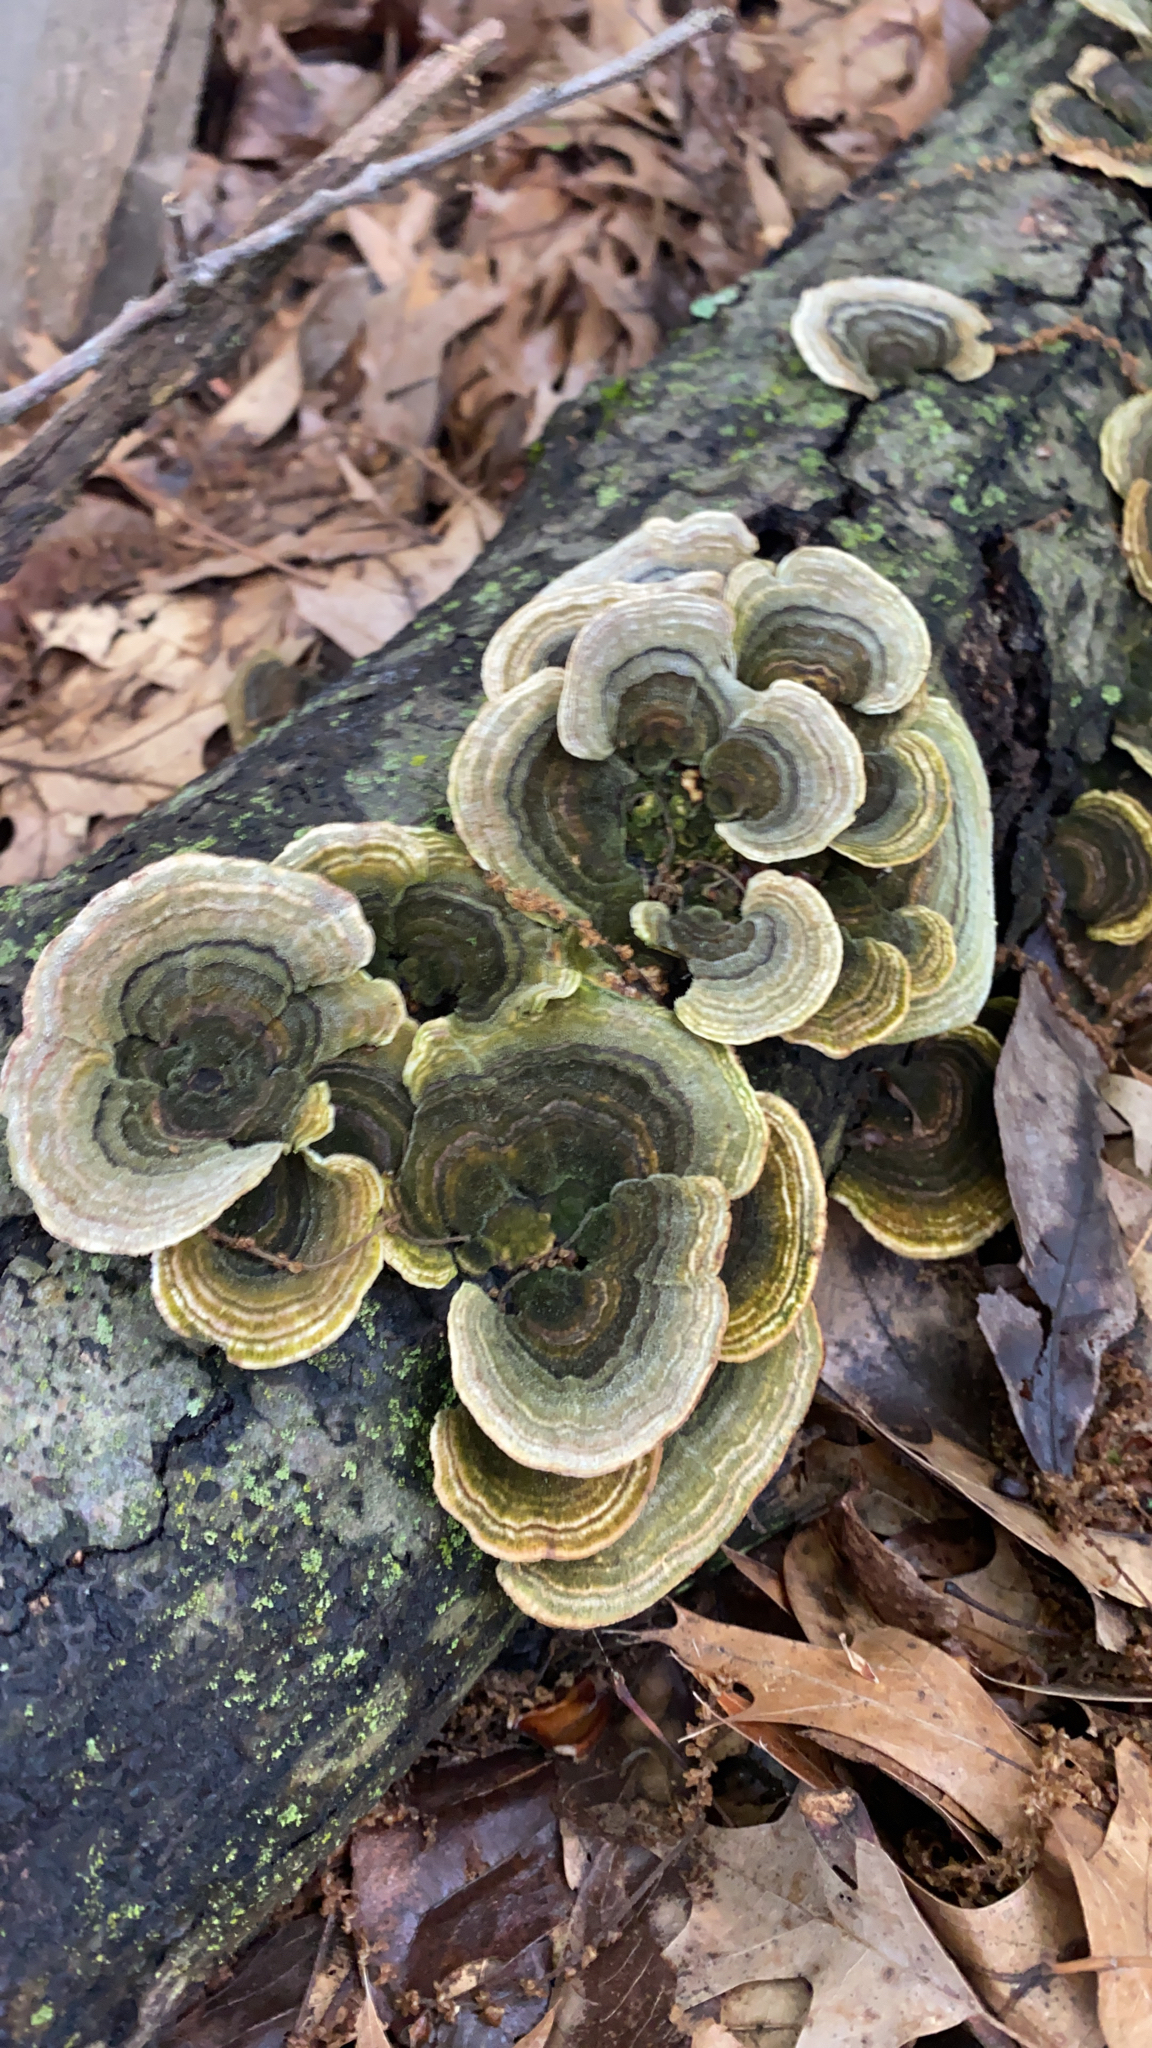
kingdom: Fungi
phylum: Basidiomycota
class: Agaricomycetes
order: Polyporales
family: Polyporaceae
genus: Trametes
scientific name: Trametes versicolor
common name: Turkeytail
